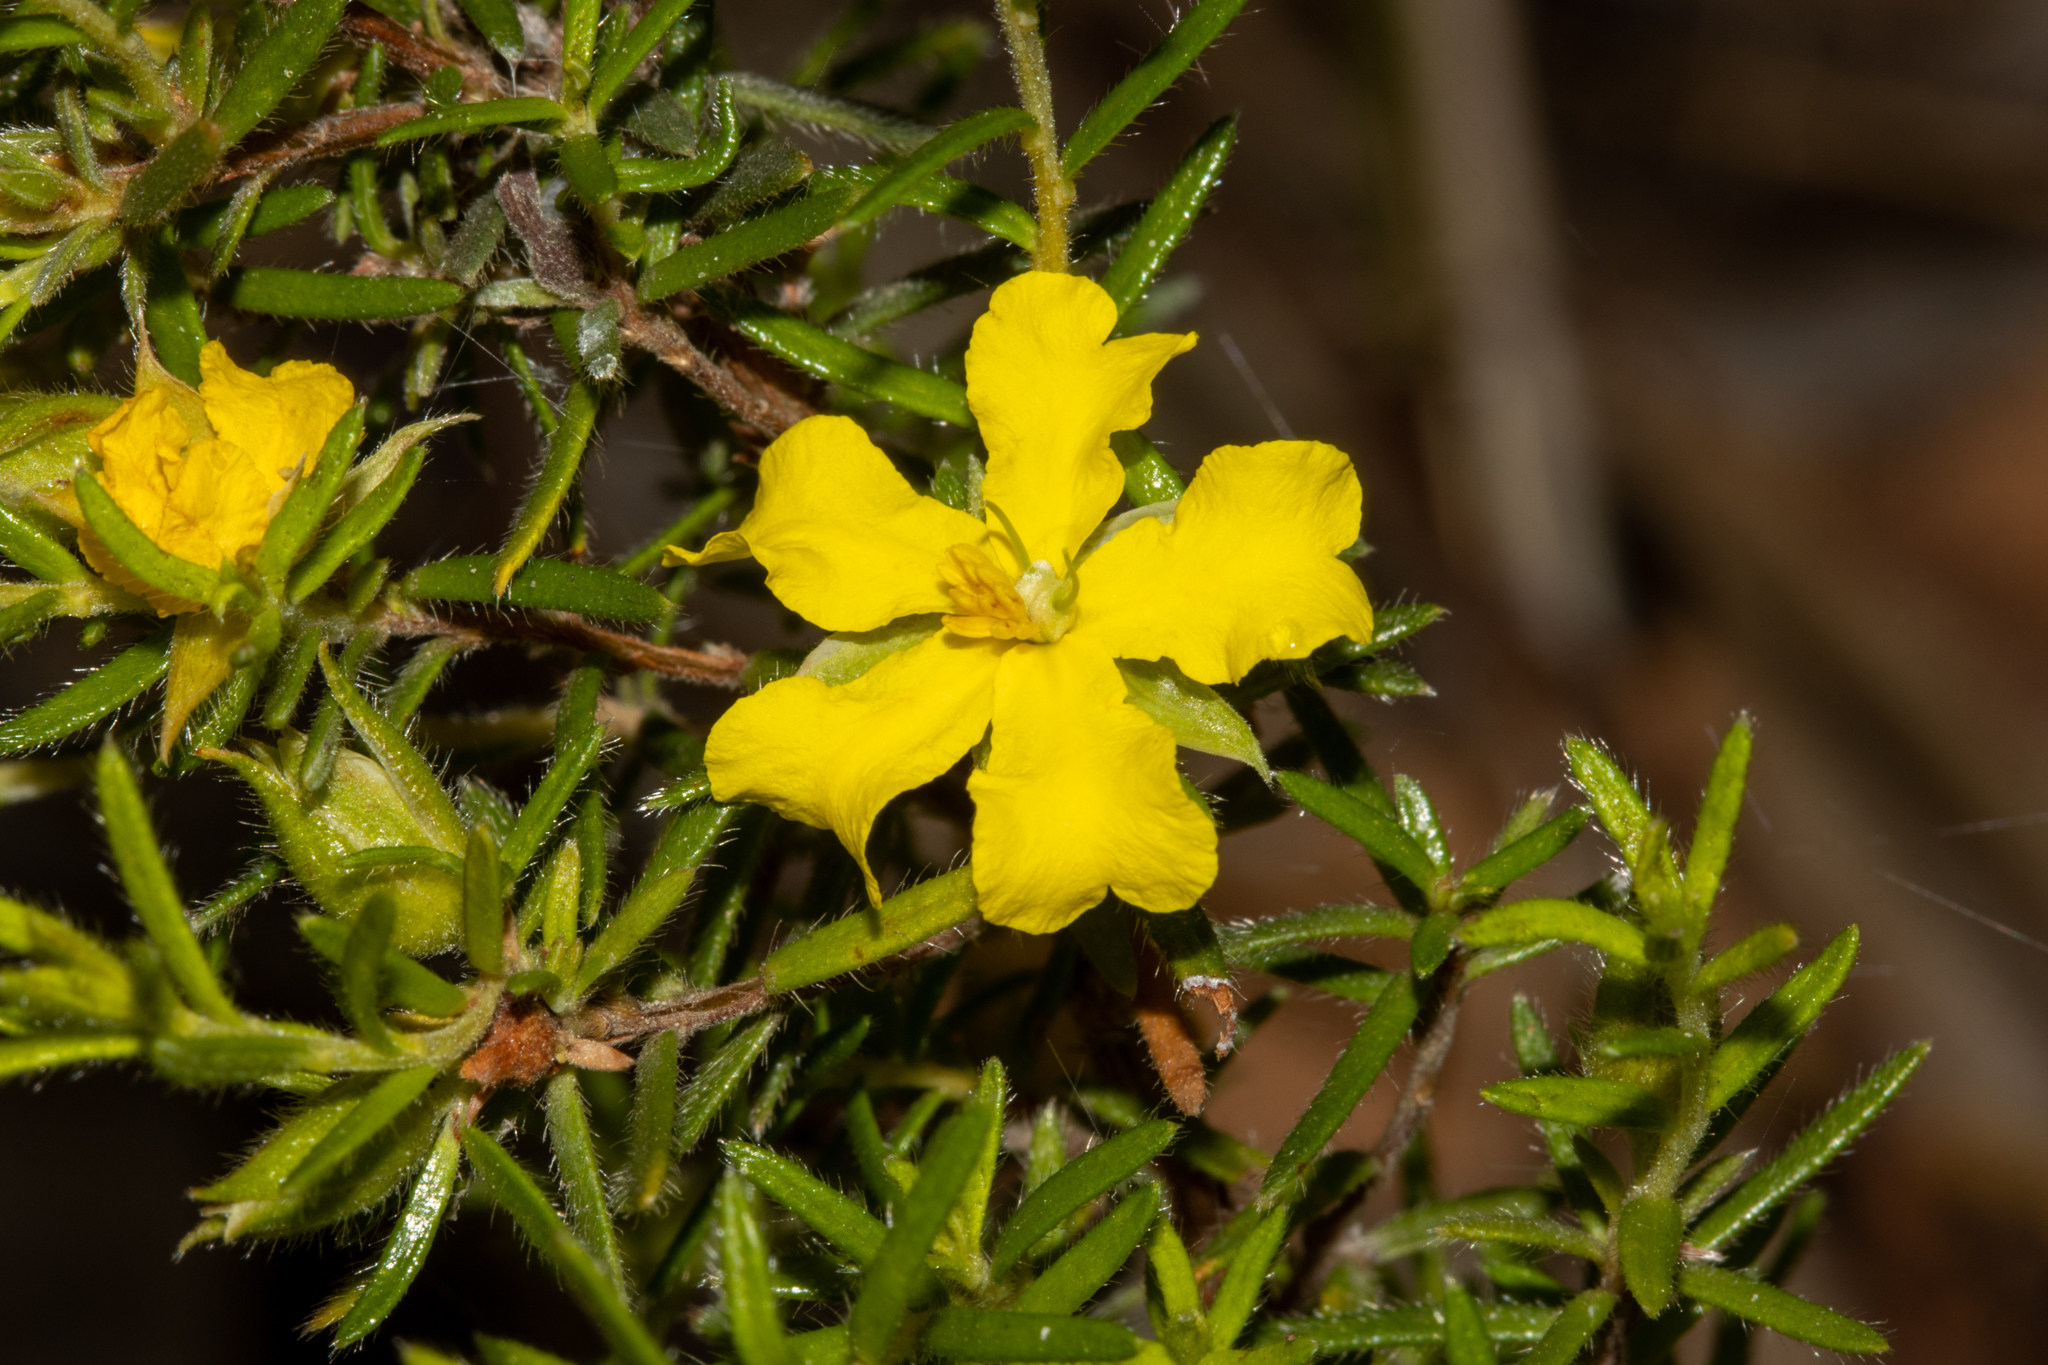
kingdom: Plantae
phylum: Tracheophyta
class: Magnoliopsida
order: Dilleniales
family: Dilleniaceae
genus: Hibbertia
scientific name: Hibbertia riparia
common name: Erect guinea-flower
